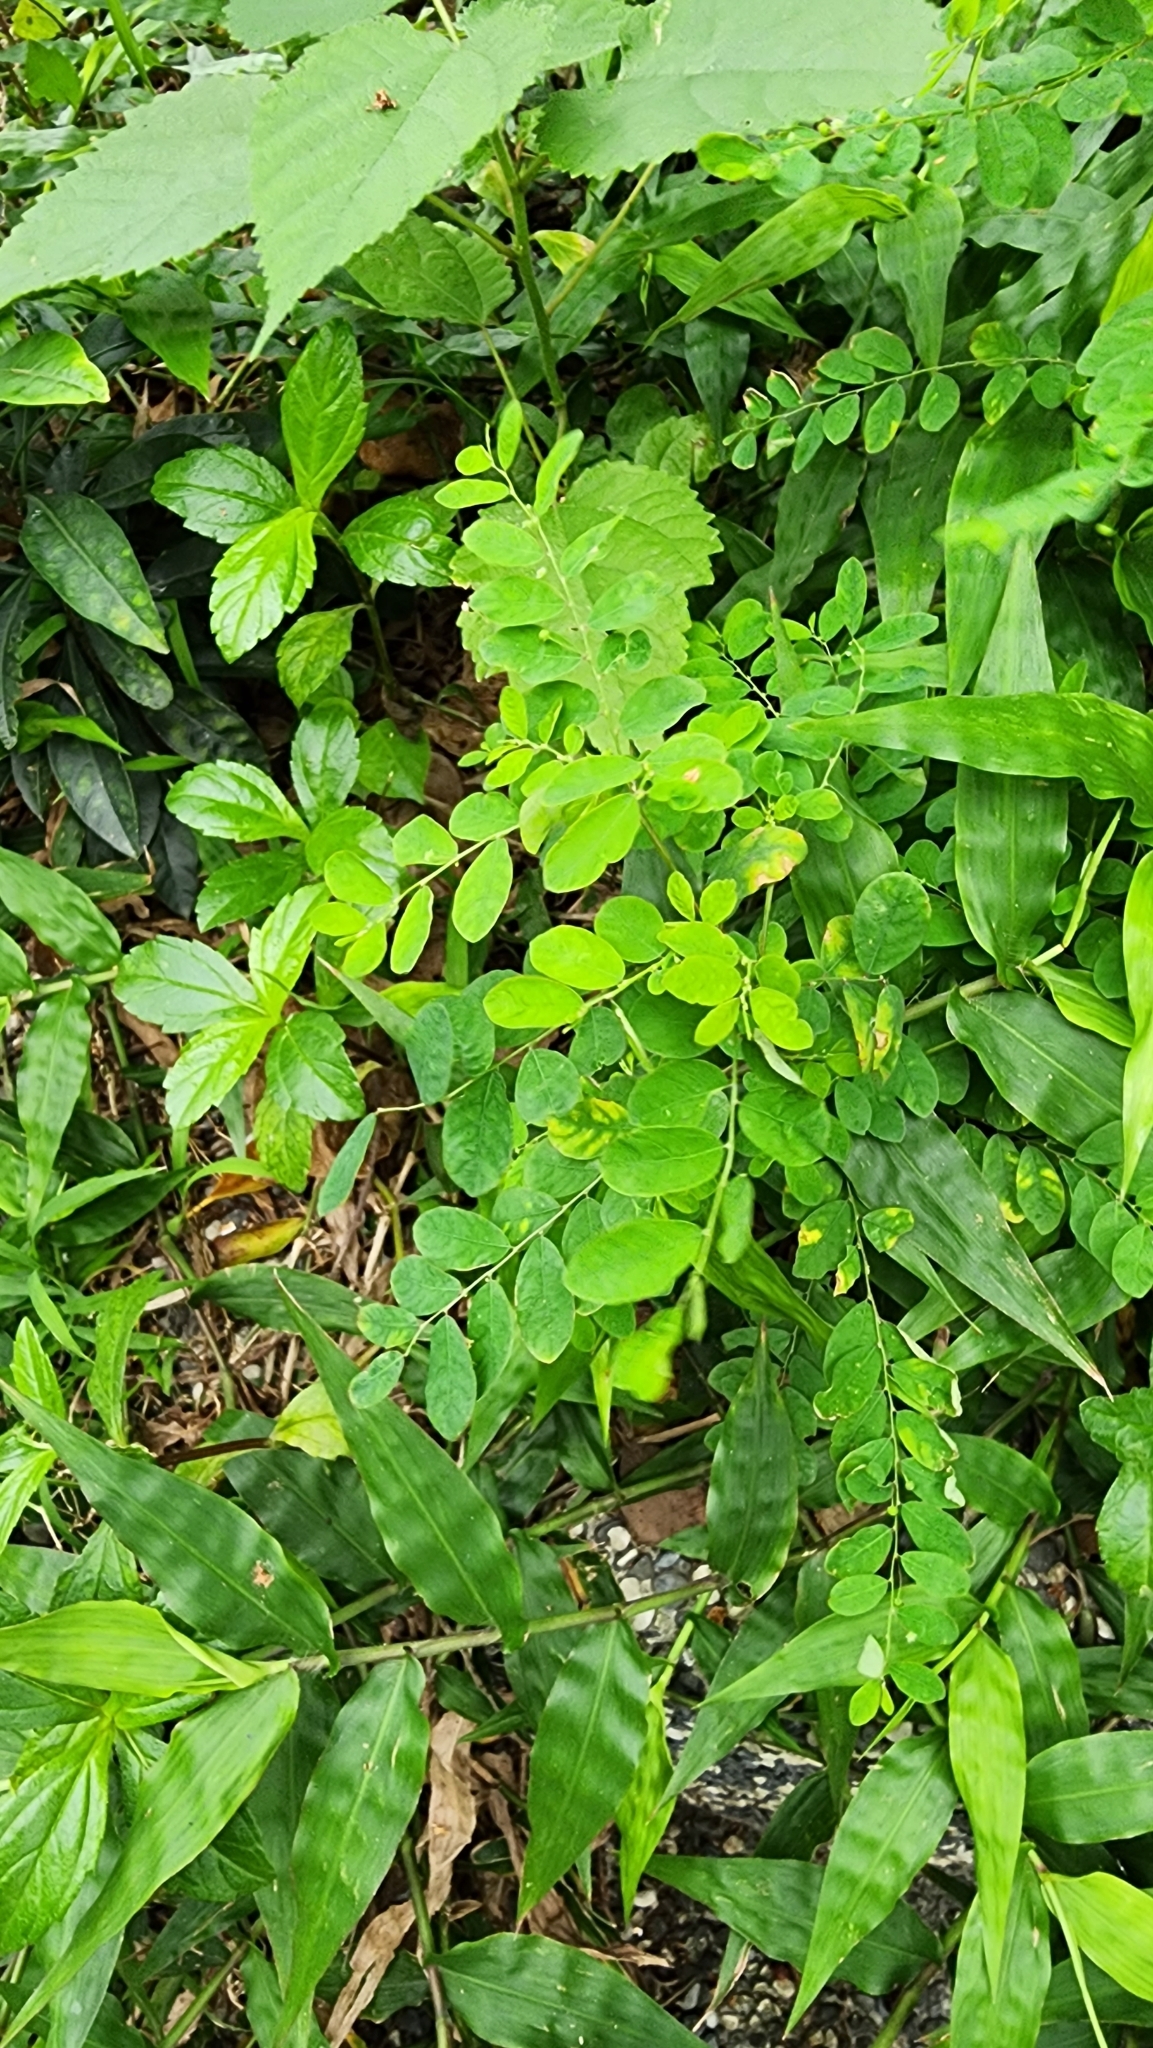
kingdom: Plantae
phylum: Tracheophyta
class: Magnoliopsida
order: Malpighiales
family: Phyllanthaceae
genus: Phyllanthus
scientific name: Phyllanthus tenellus
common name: Mascarene island leaf-flower
